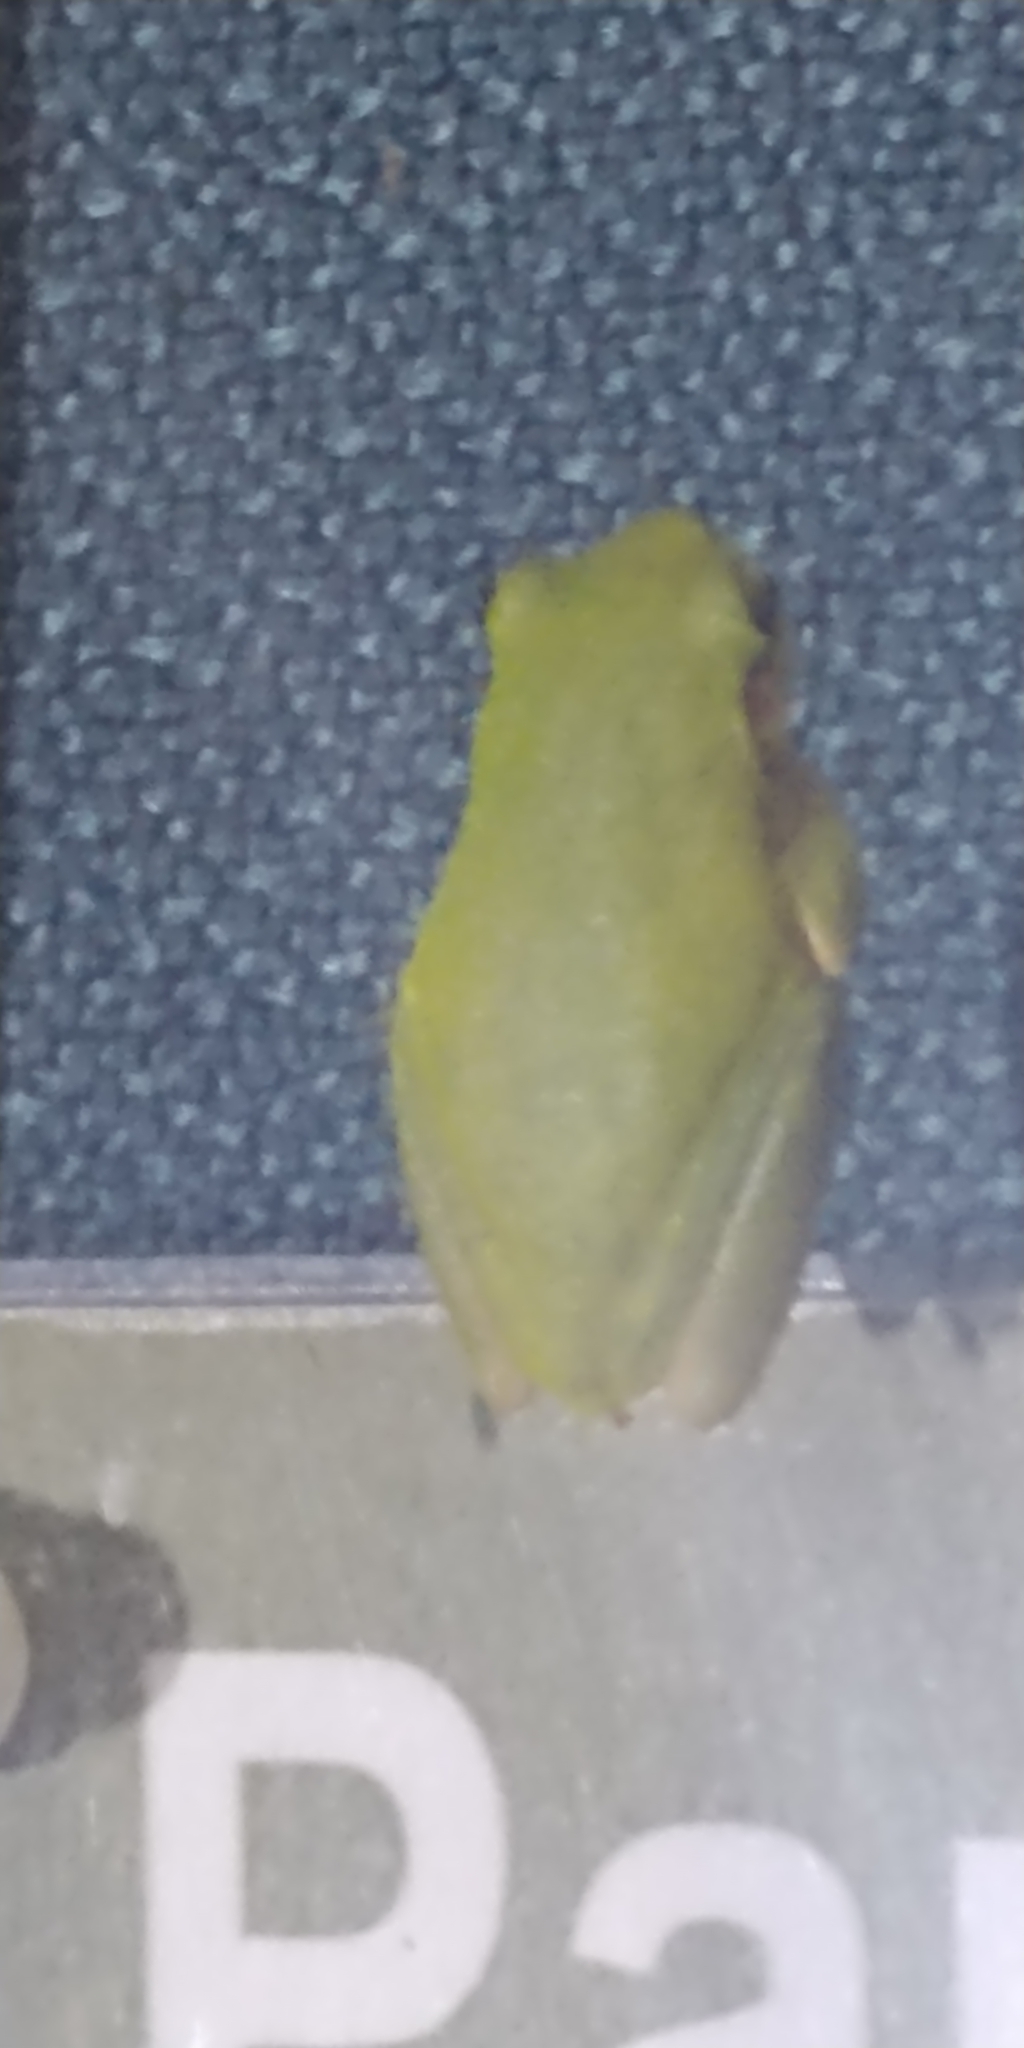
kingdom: Animalia
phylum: Chordata
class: Amphibia
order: Anura
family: Hylidae
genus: Dryophytes
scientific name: Dryophytes squirellus
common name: Squirrel treefrog
